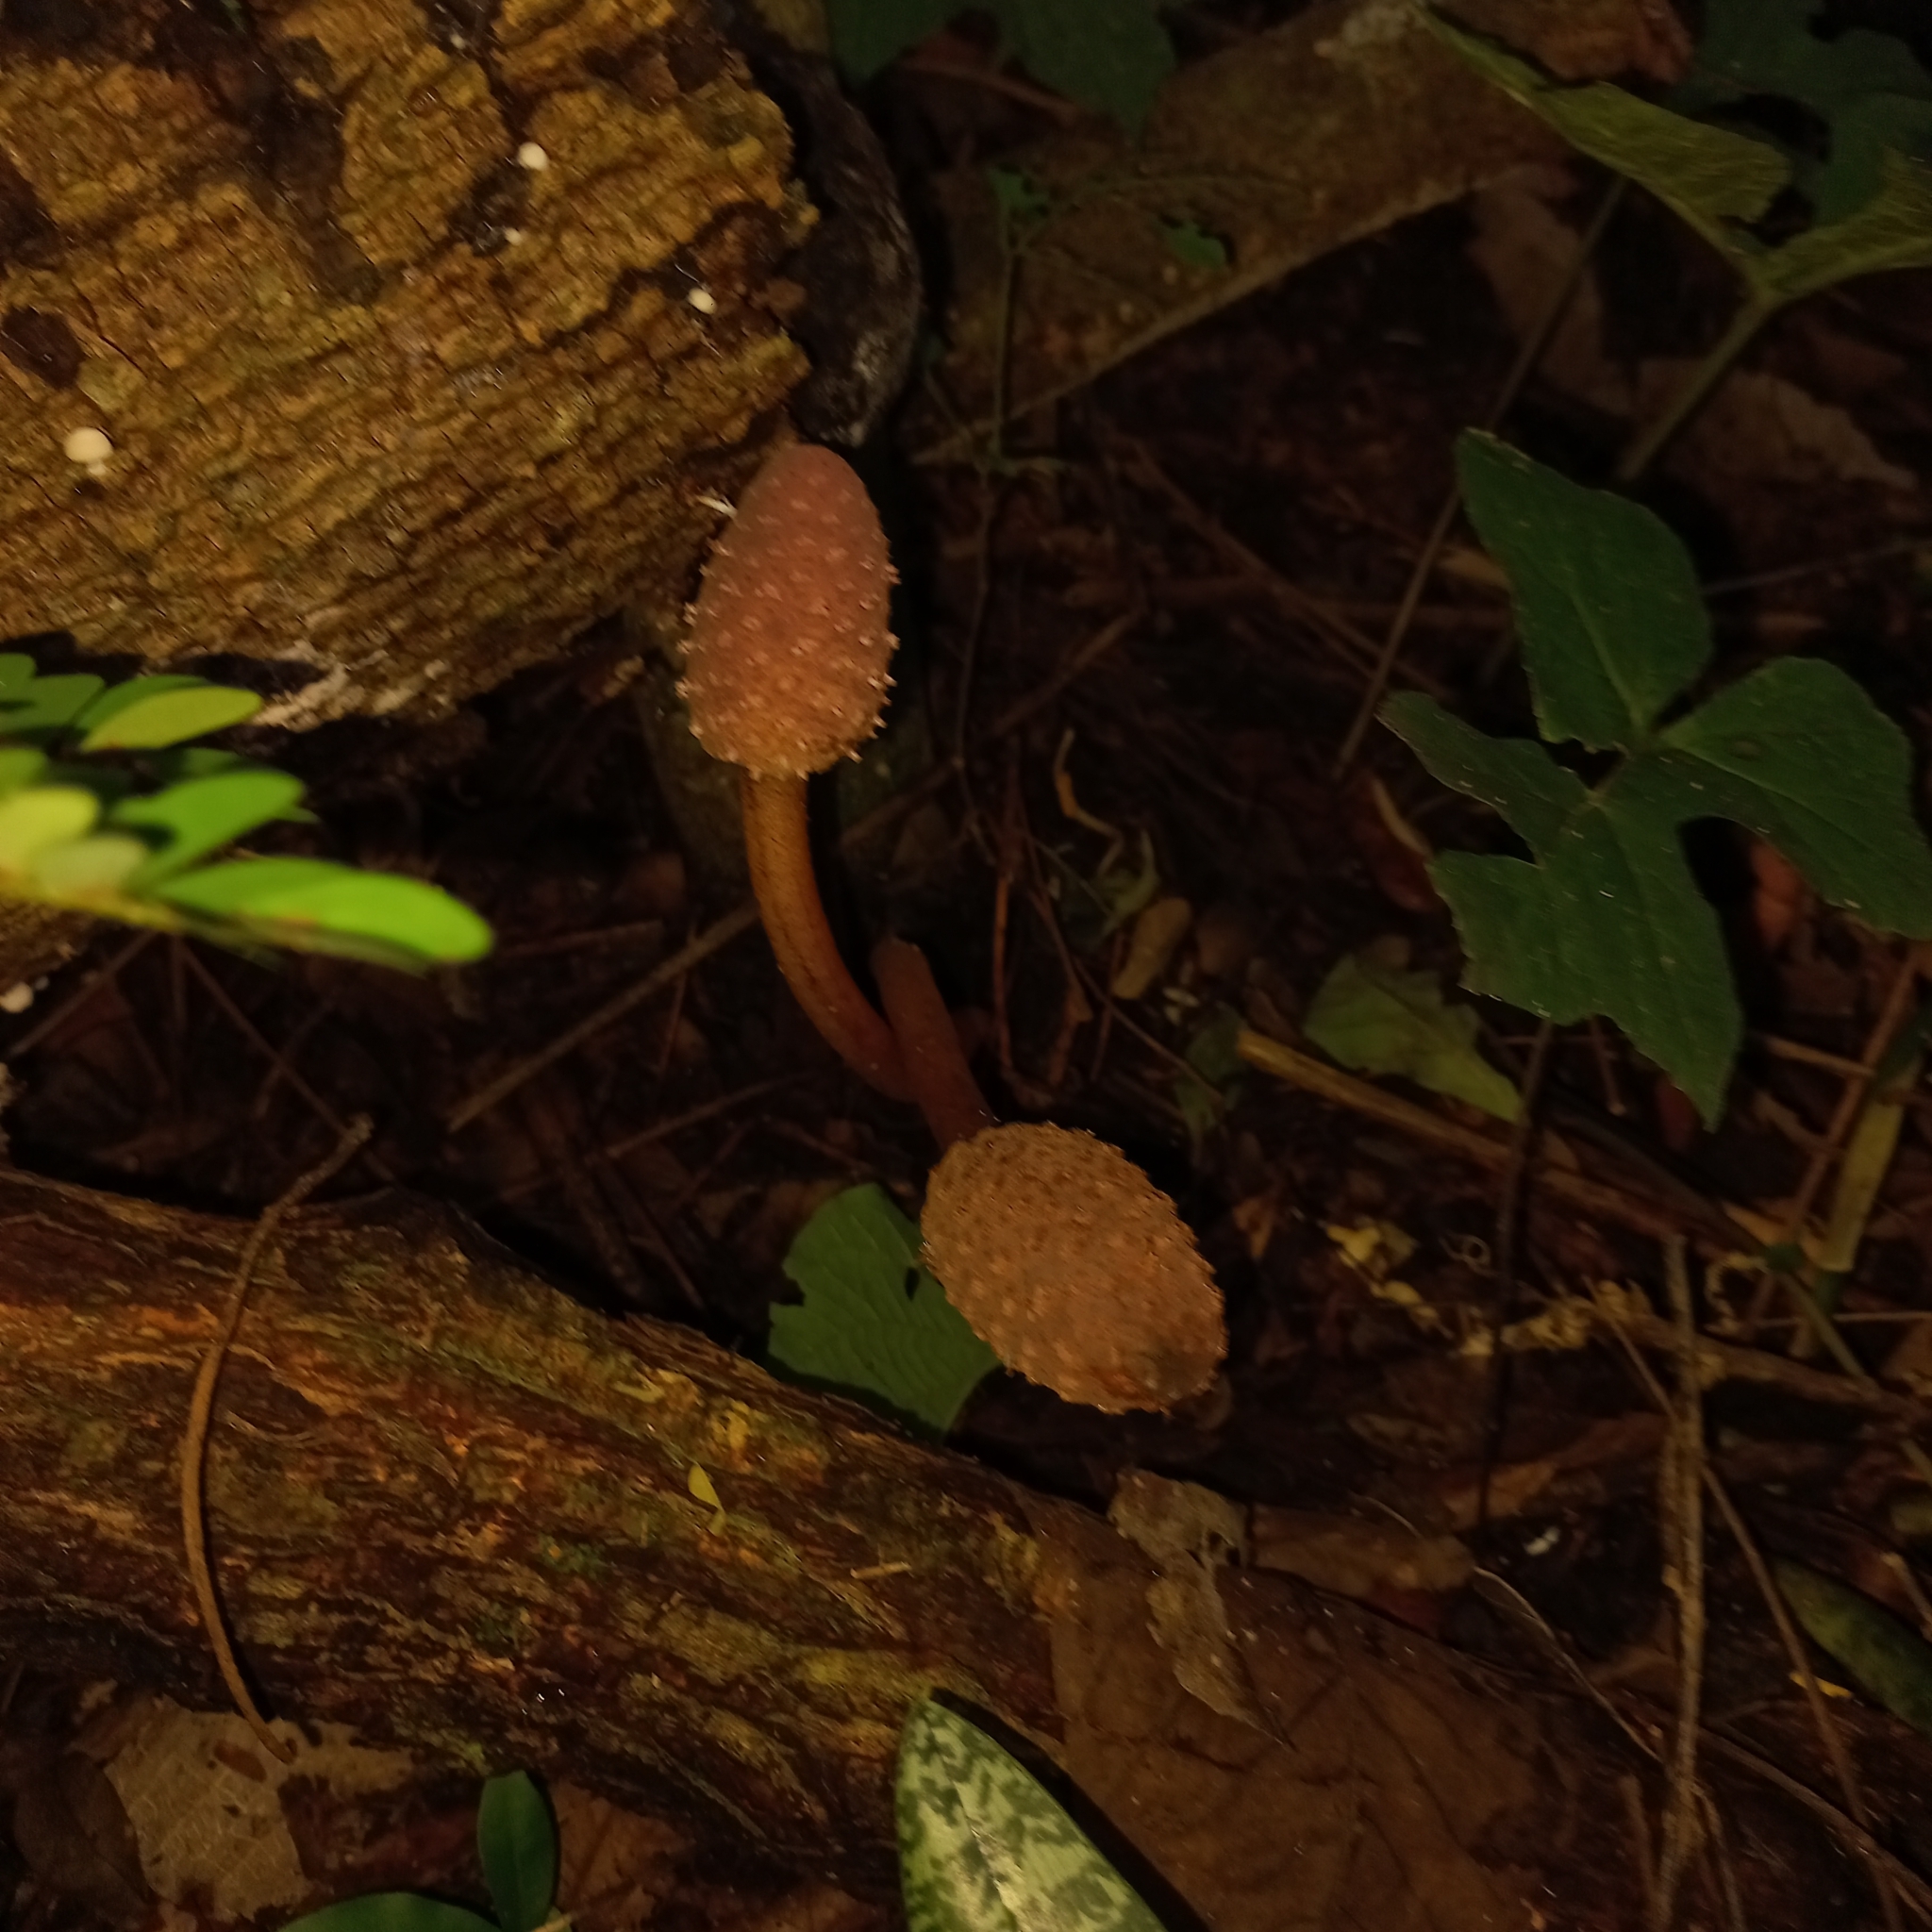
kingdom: Plantae
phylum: Tracheophyta
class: Magnoliopsida
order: Santalales
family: Balanophoraceae
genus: Helosis
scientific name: Helosis cayennensis
